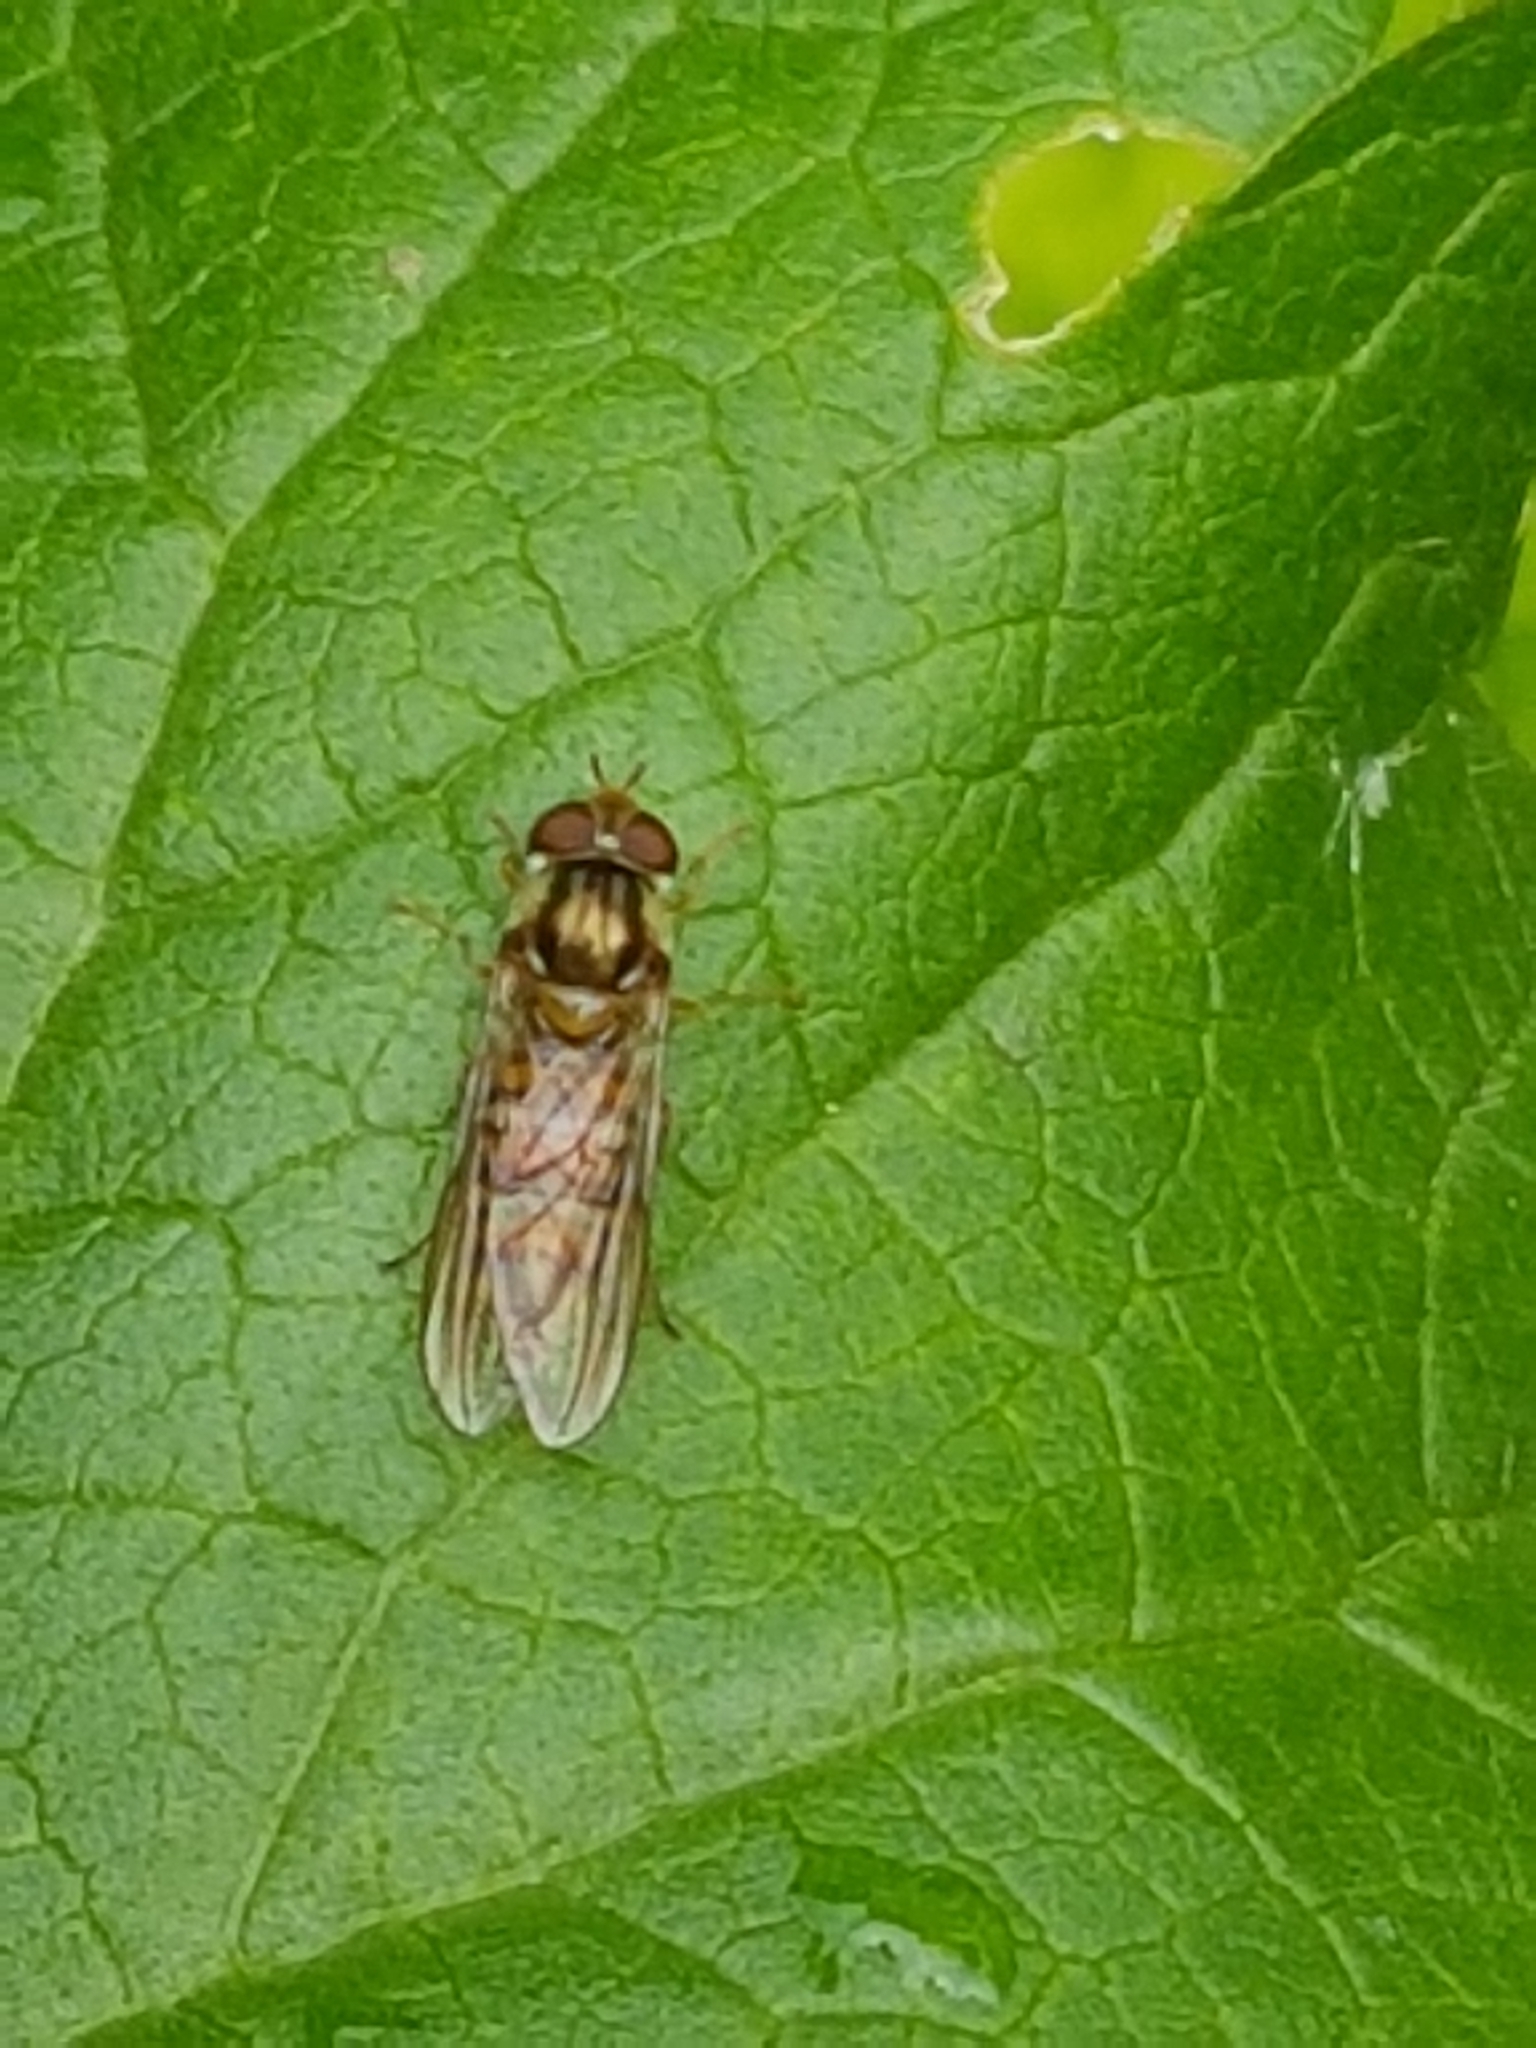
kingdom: Animalia
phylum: Arthropoda
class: Insecta
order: Diptera
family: Syrphidae
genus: Episyrphus
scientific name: Episyrphus balteatus
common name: Marmalade hoverfly
